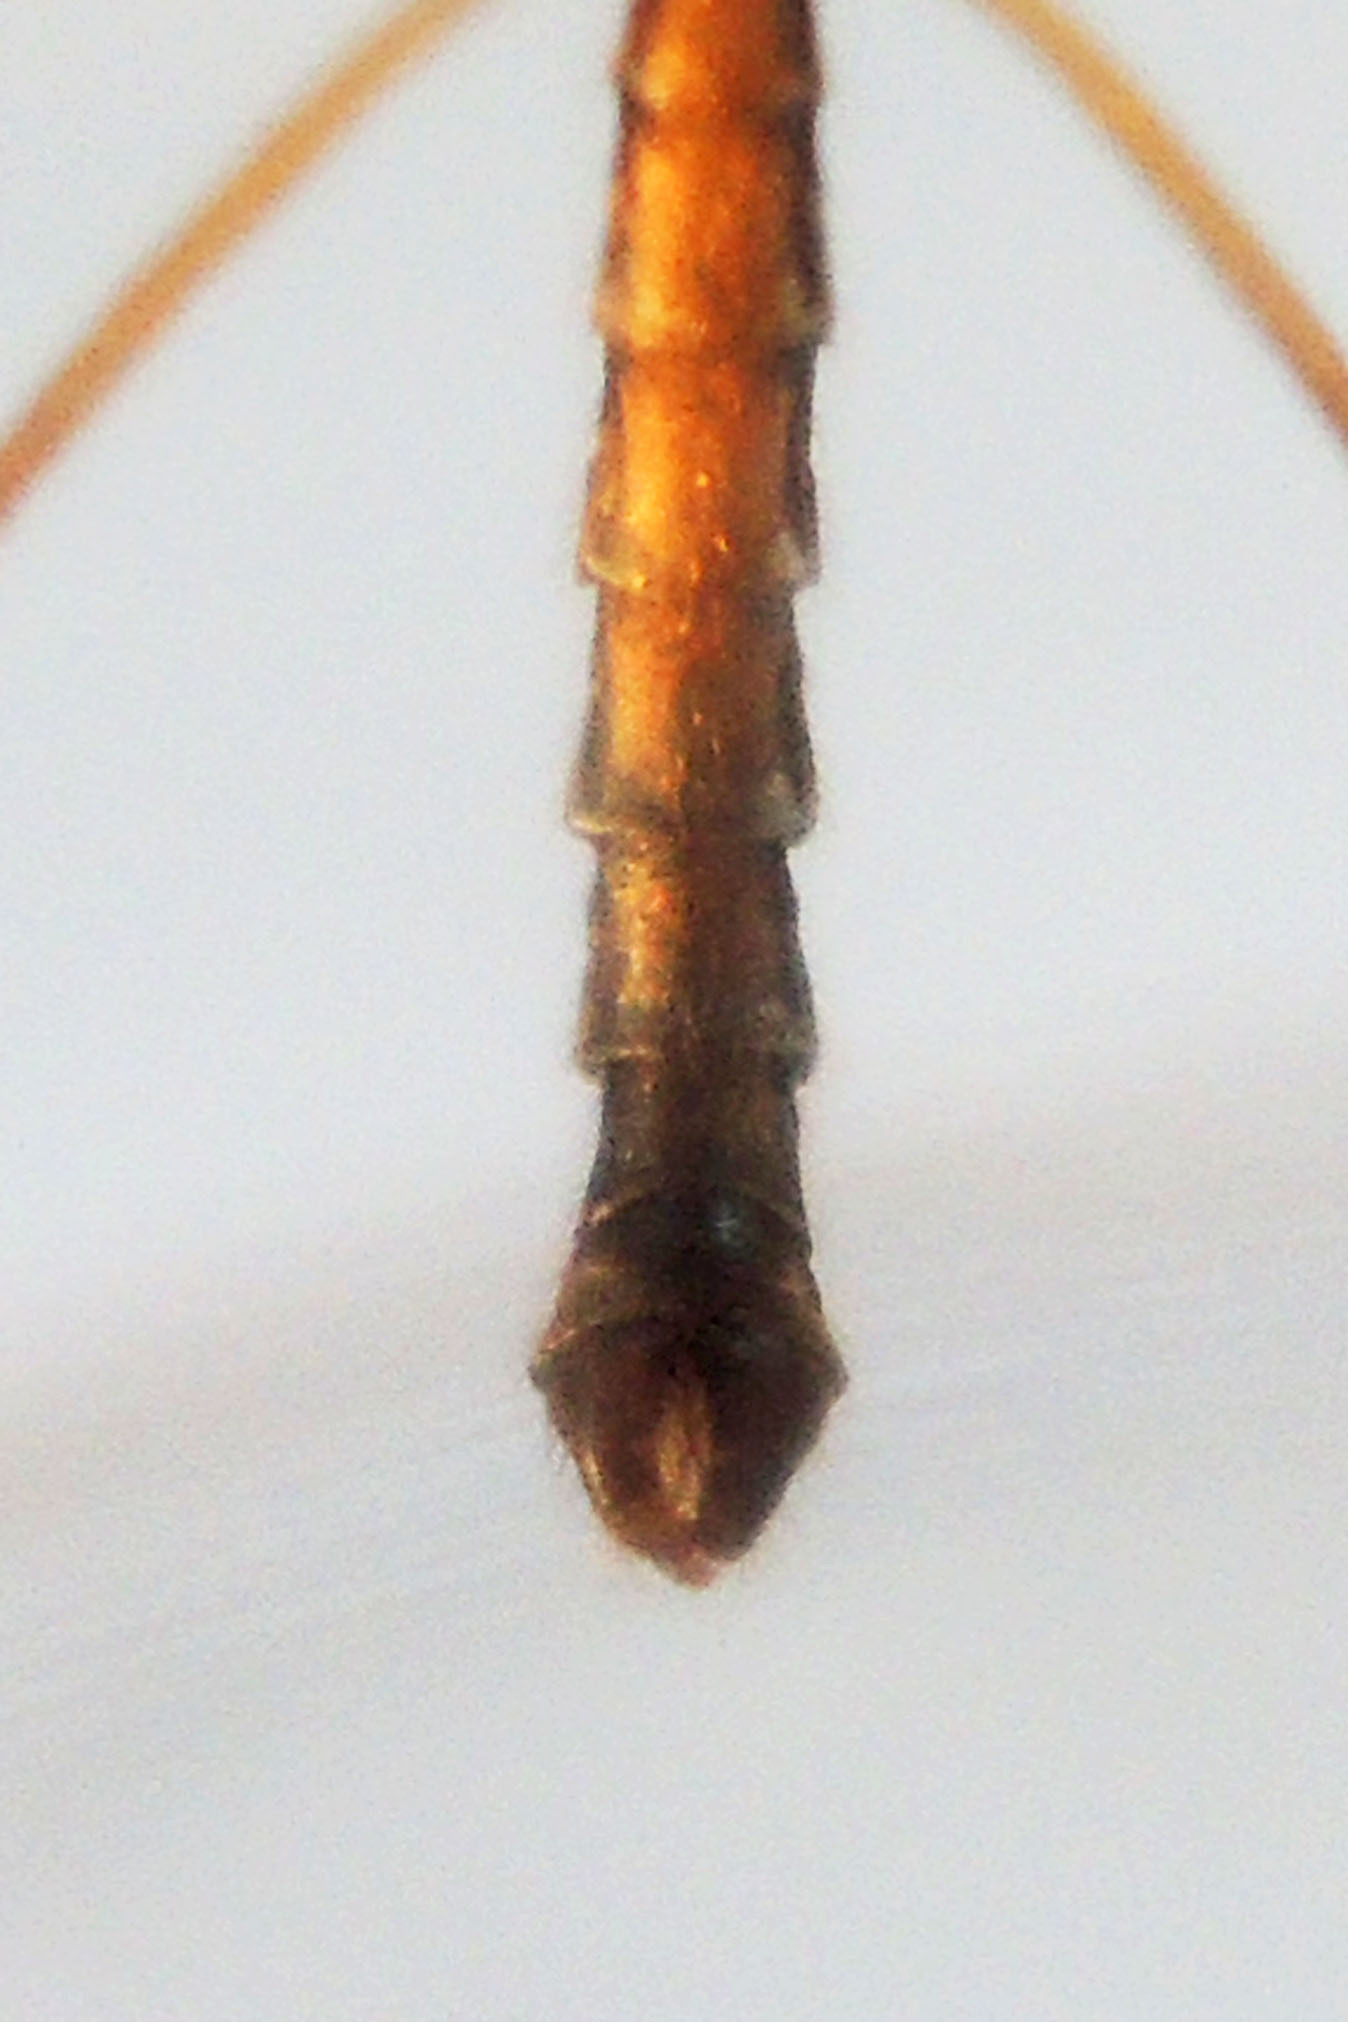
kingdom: Animalia
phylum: Arthropoda
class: Insecta
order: Diptera
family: Limoniidae
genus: Epiphragma
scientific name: Epiphragma fasciapenne
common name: Band-winged crane fly
